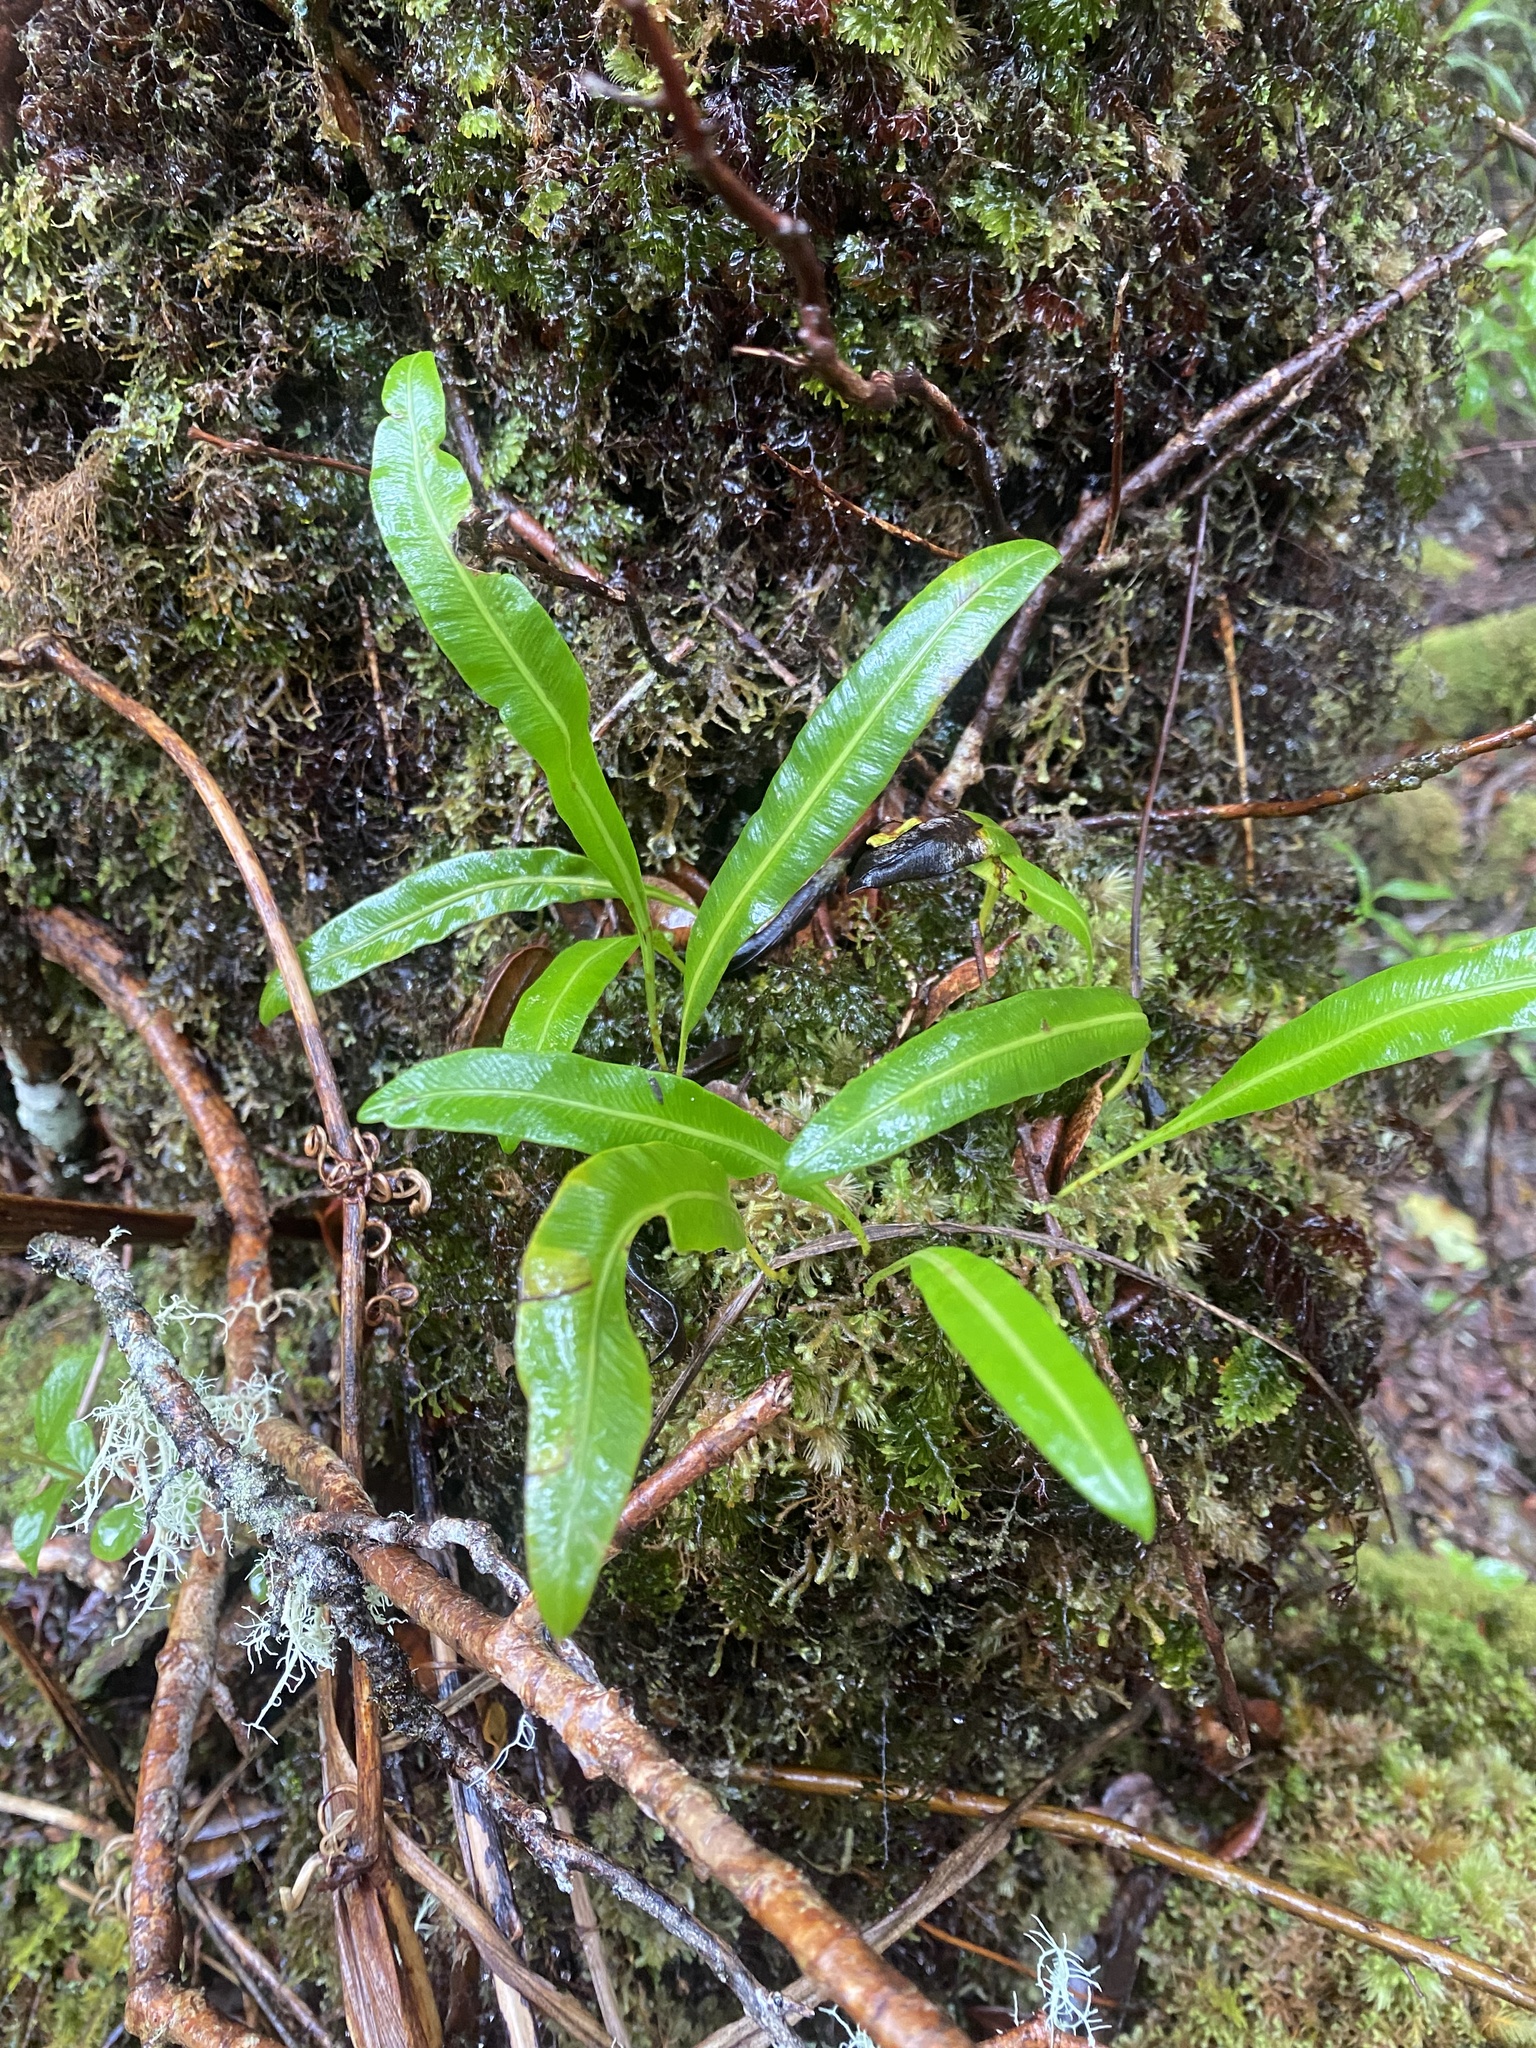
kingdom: Plantae
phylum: Tracheophyta
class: Polypodiopsida
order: Polypodiales
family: Dryopteridaceae
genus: Elaphoglossum
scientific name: Elaphoglossum wawrae
